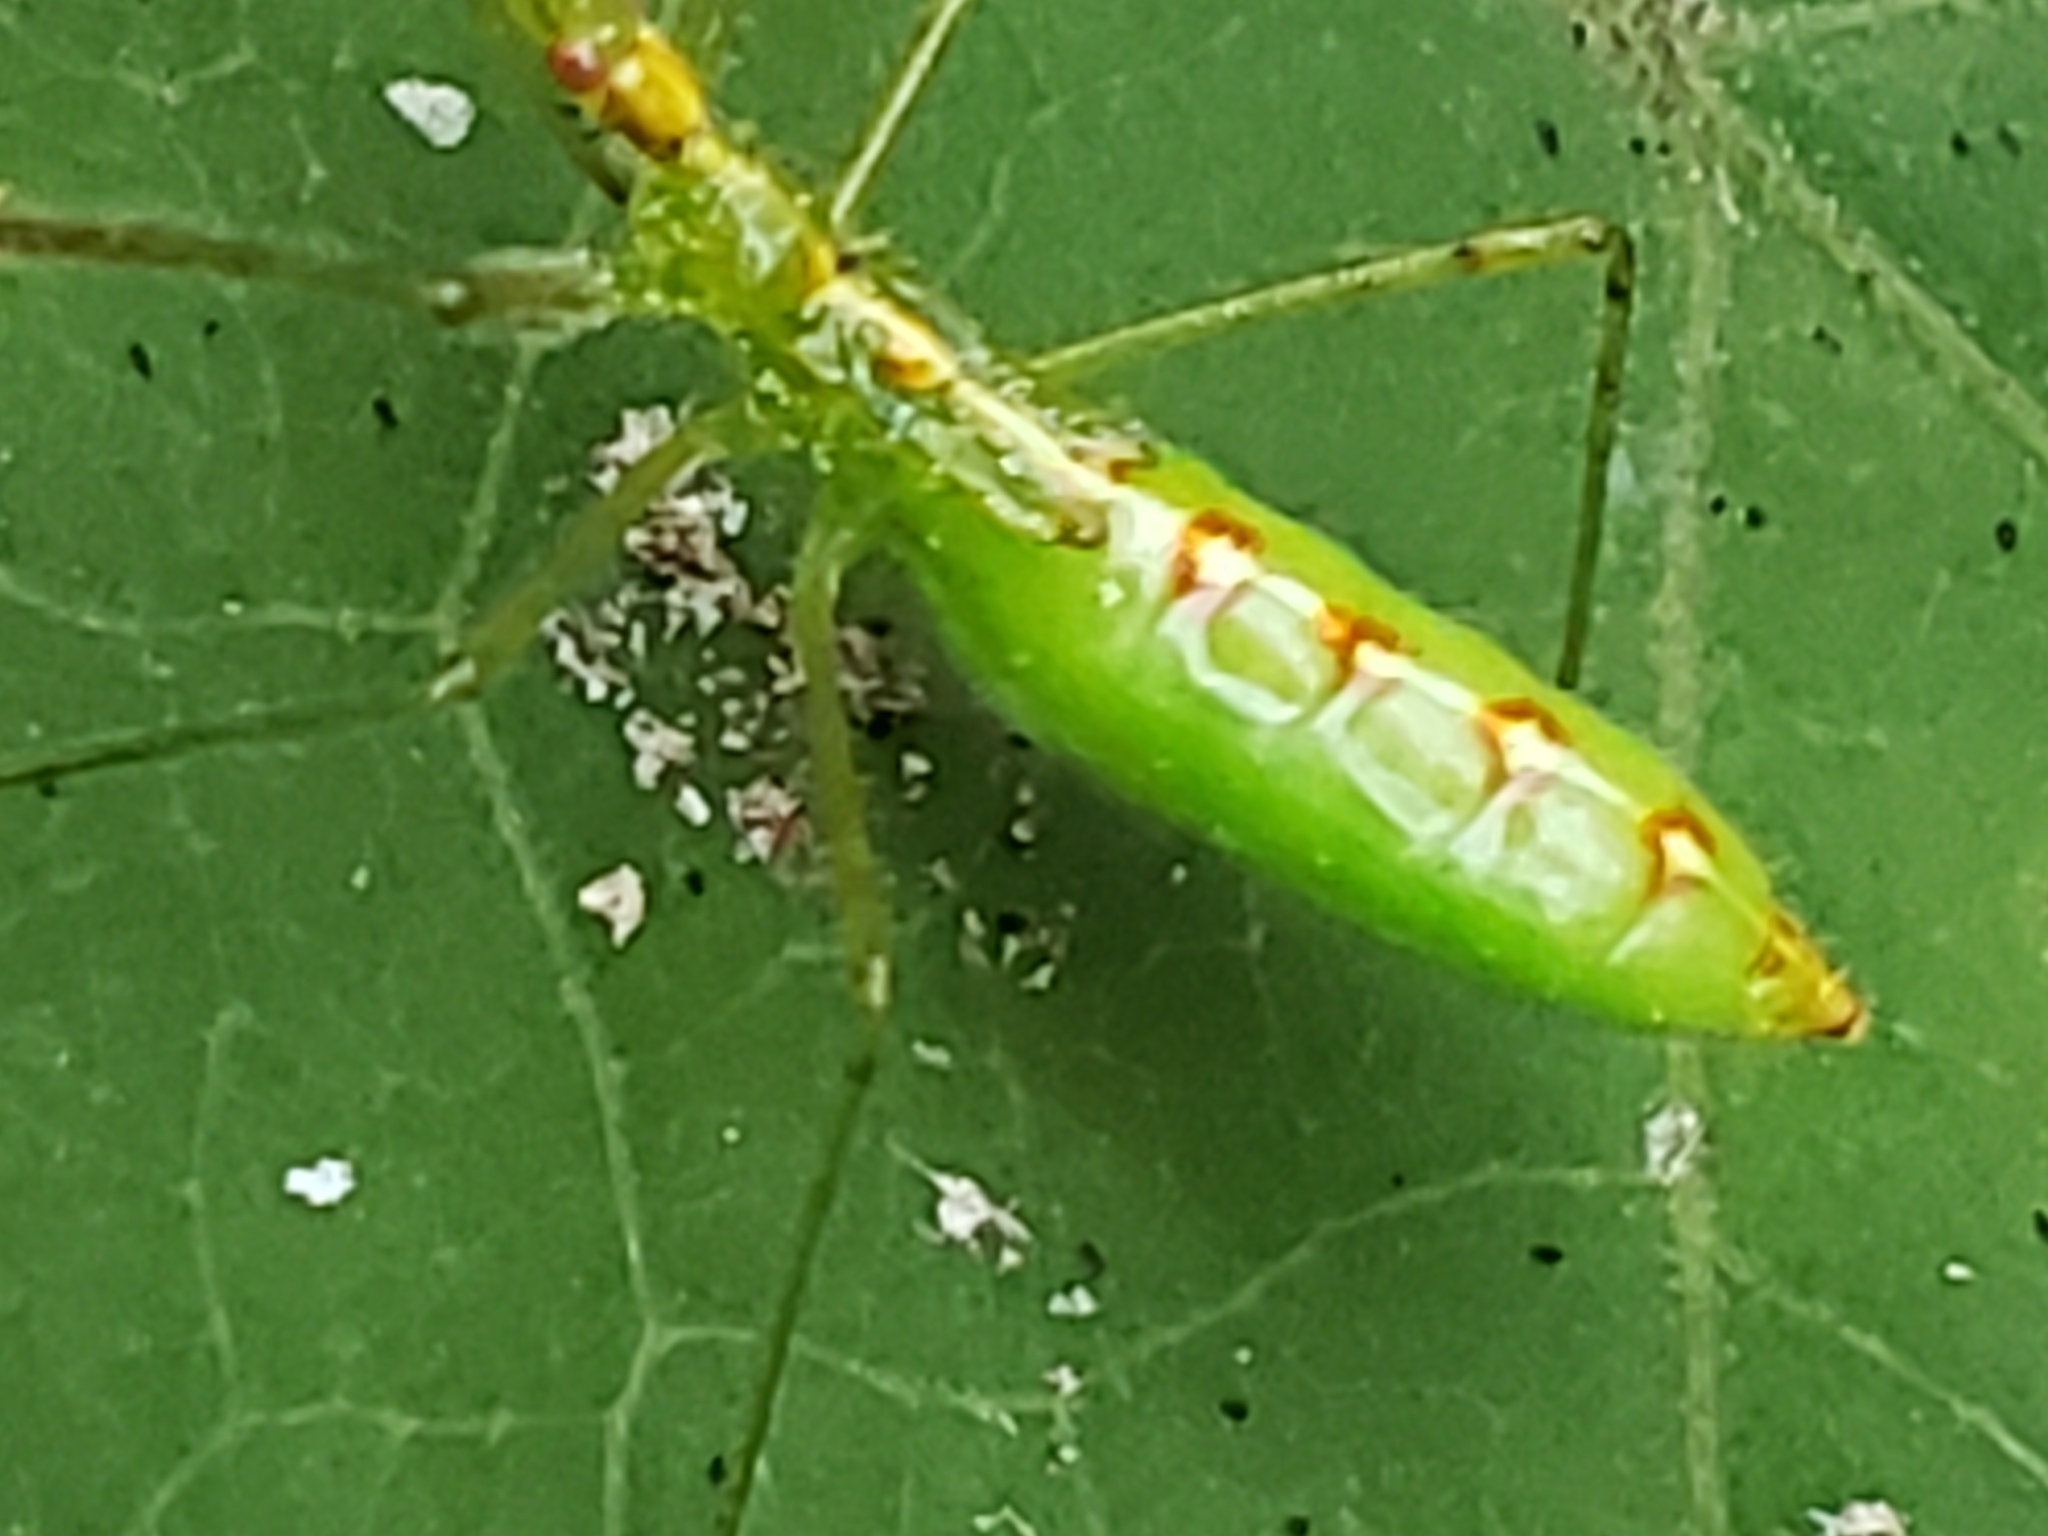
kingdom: Animalia
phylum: Arthropoda
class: Insecta
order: Hemiptera
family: Reduviidae
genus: Zelus
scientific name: Zelus luridus
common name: Pale green assassin bug
